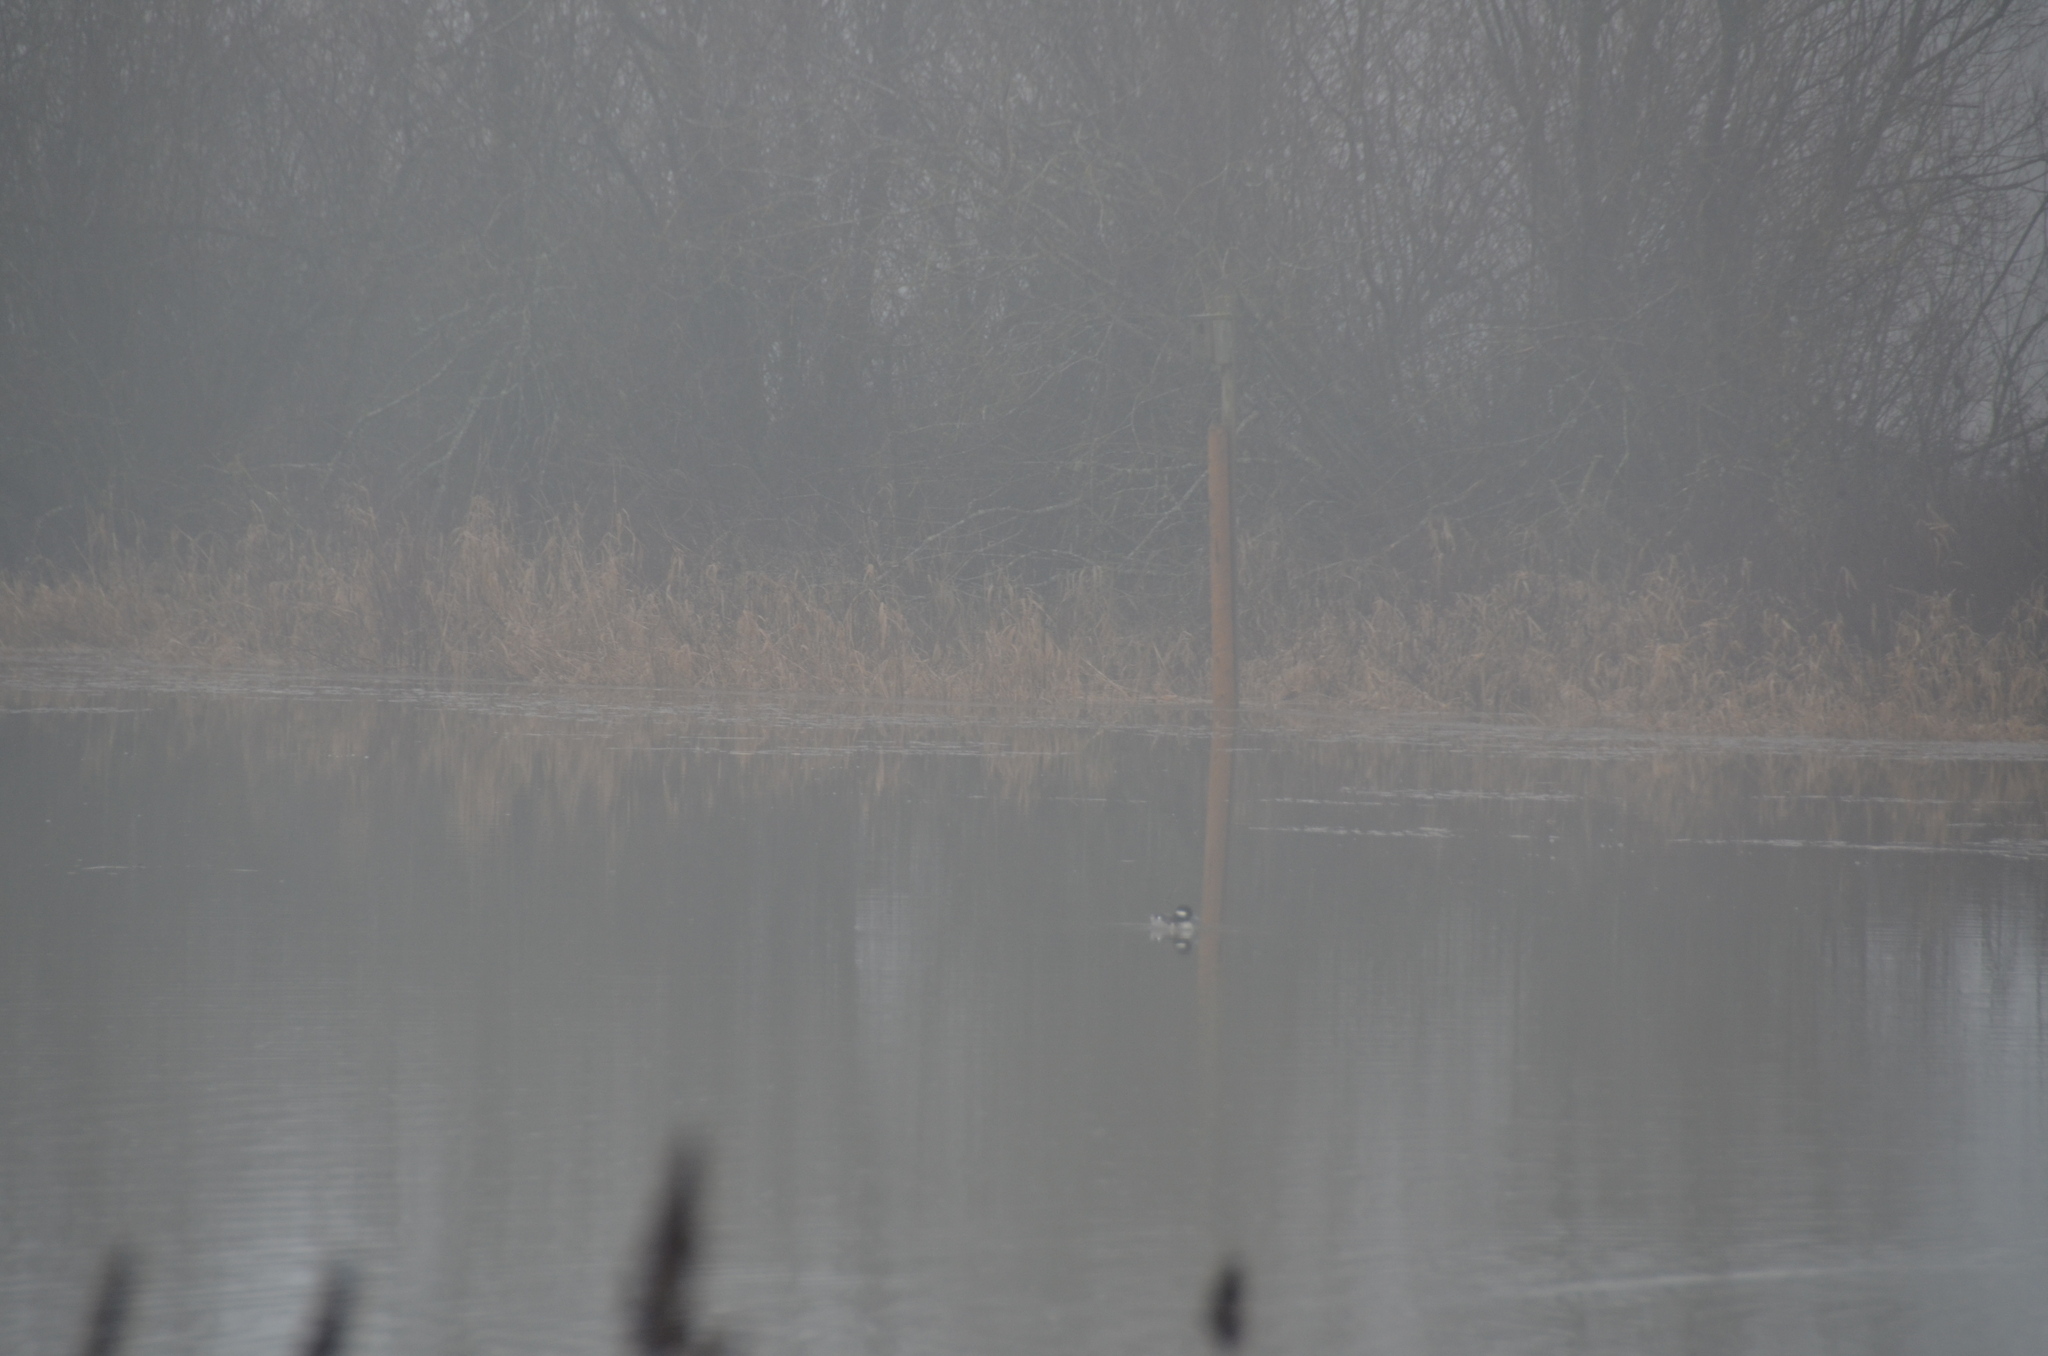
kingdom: Animalia
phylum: Chordata
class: Aves
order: Anseriformes
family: Anatidae
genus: Bucephala
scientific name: Bucephala albeola
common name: Bufflehead
